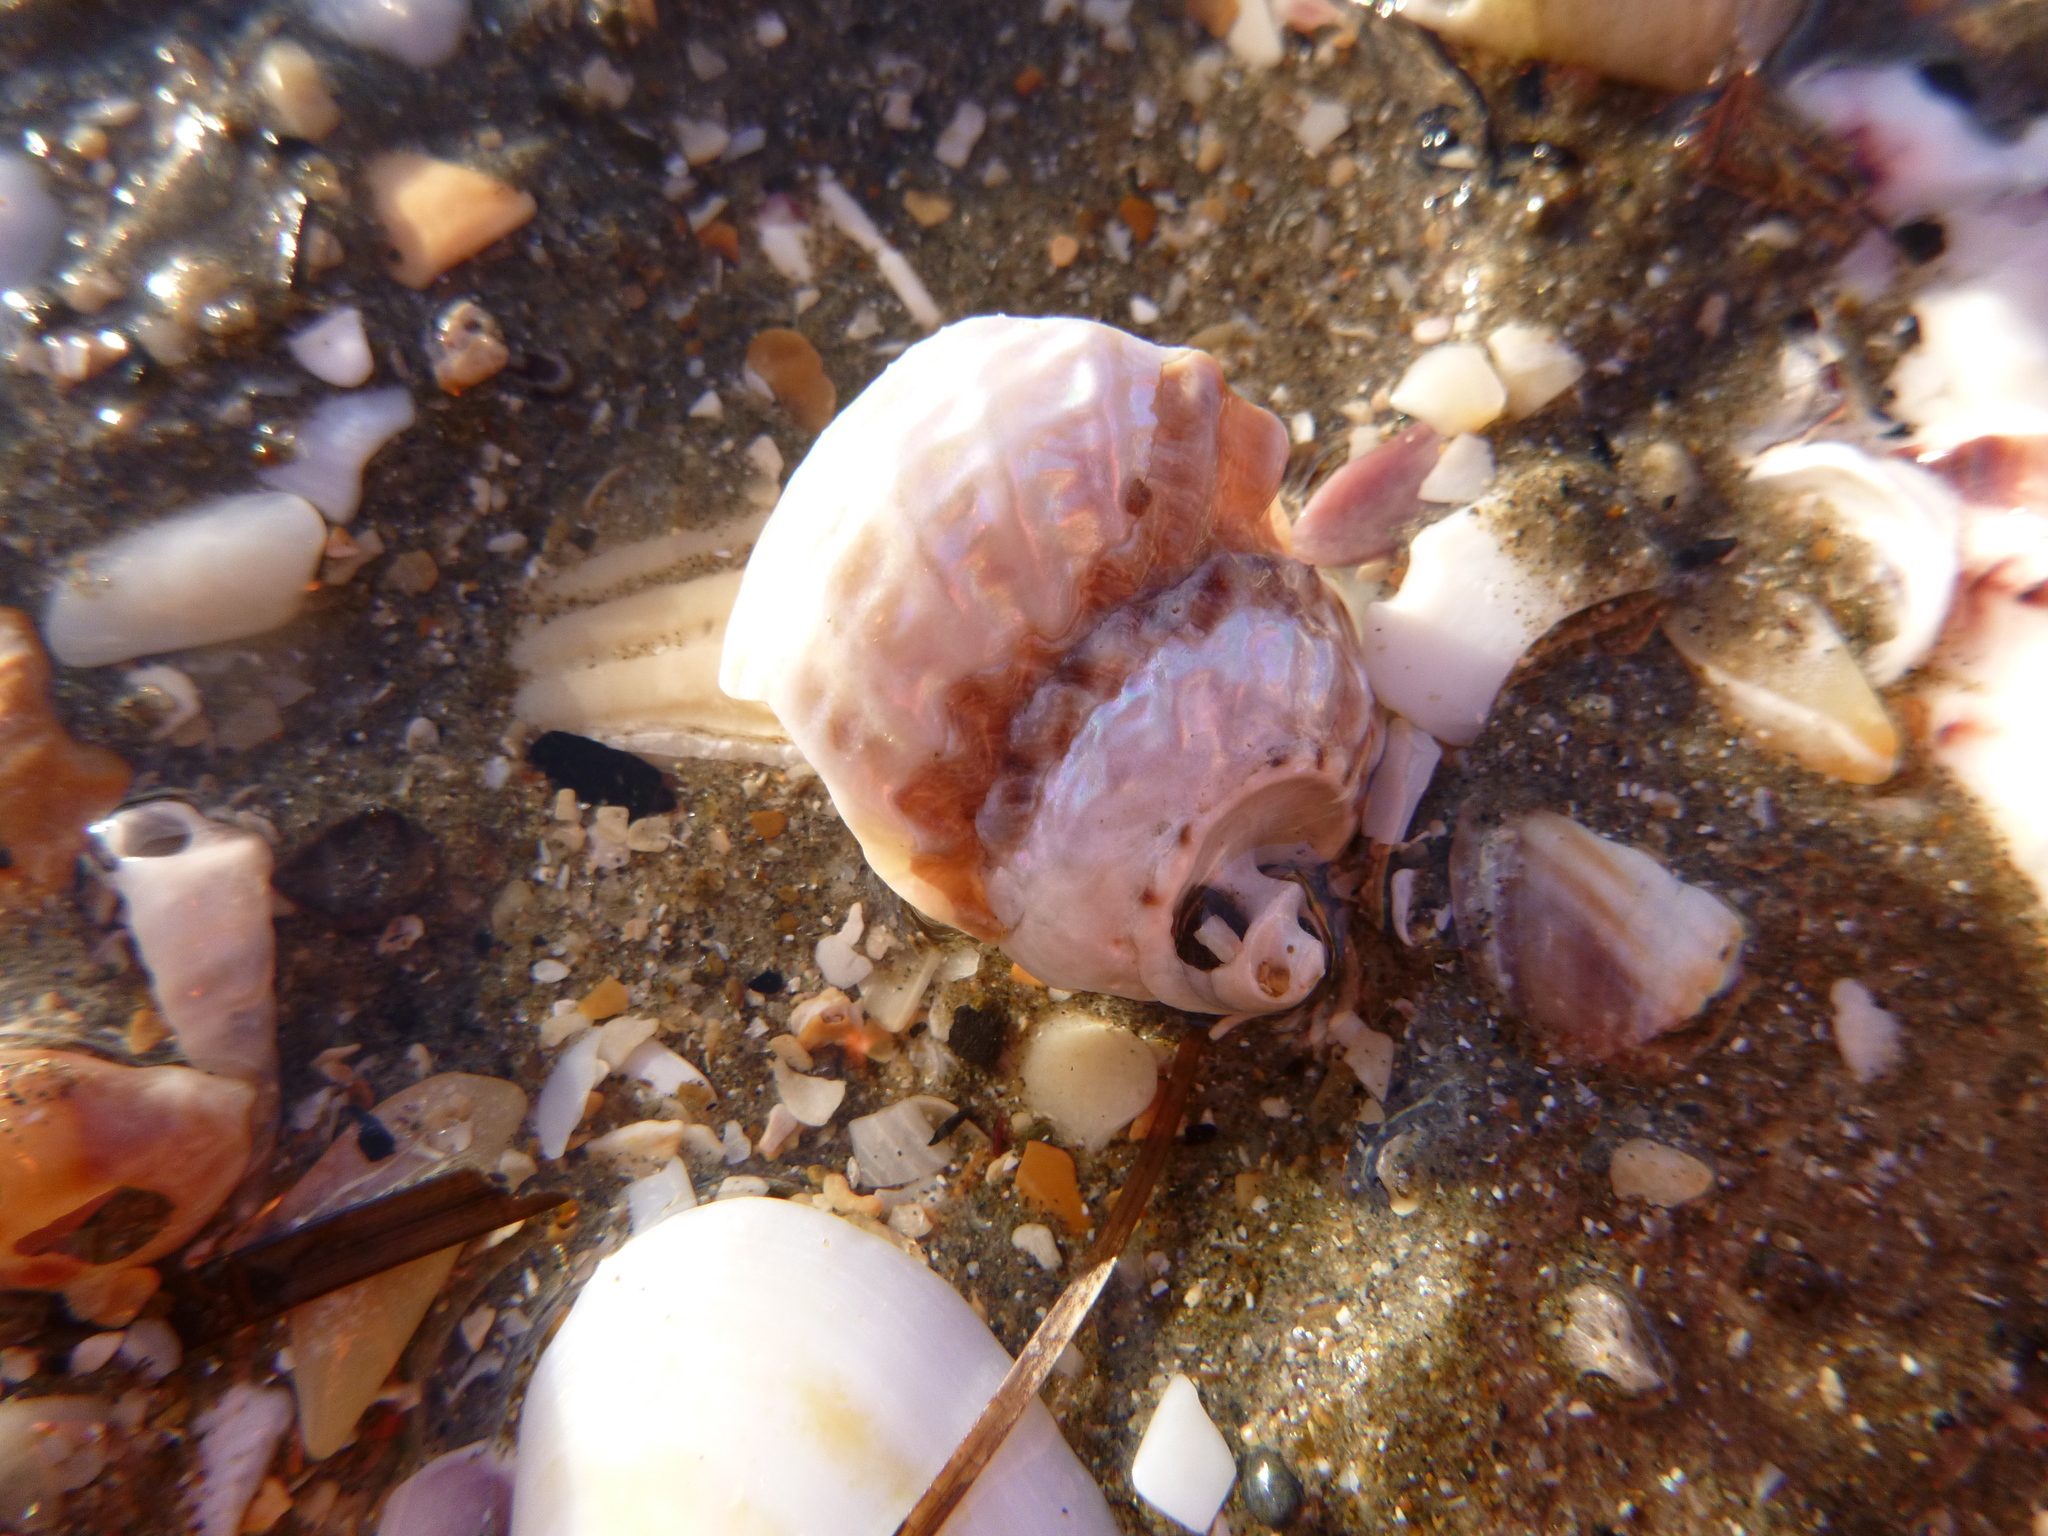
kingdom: Animalia
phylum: Mollusca
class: Gastropoda
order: Trochida
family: Turbinidae
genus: Cookia
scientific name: Cookia sulcata
